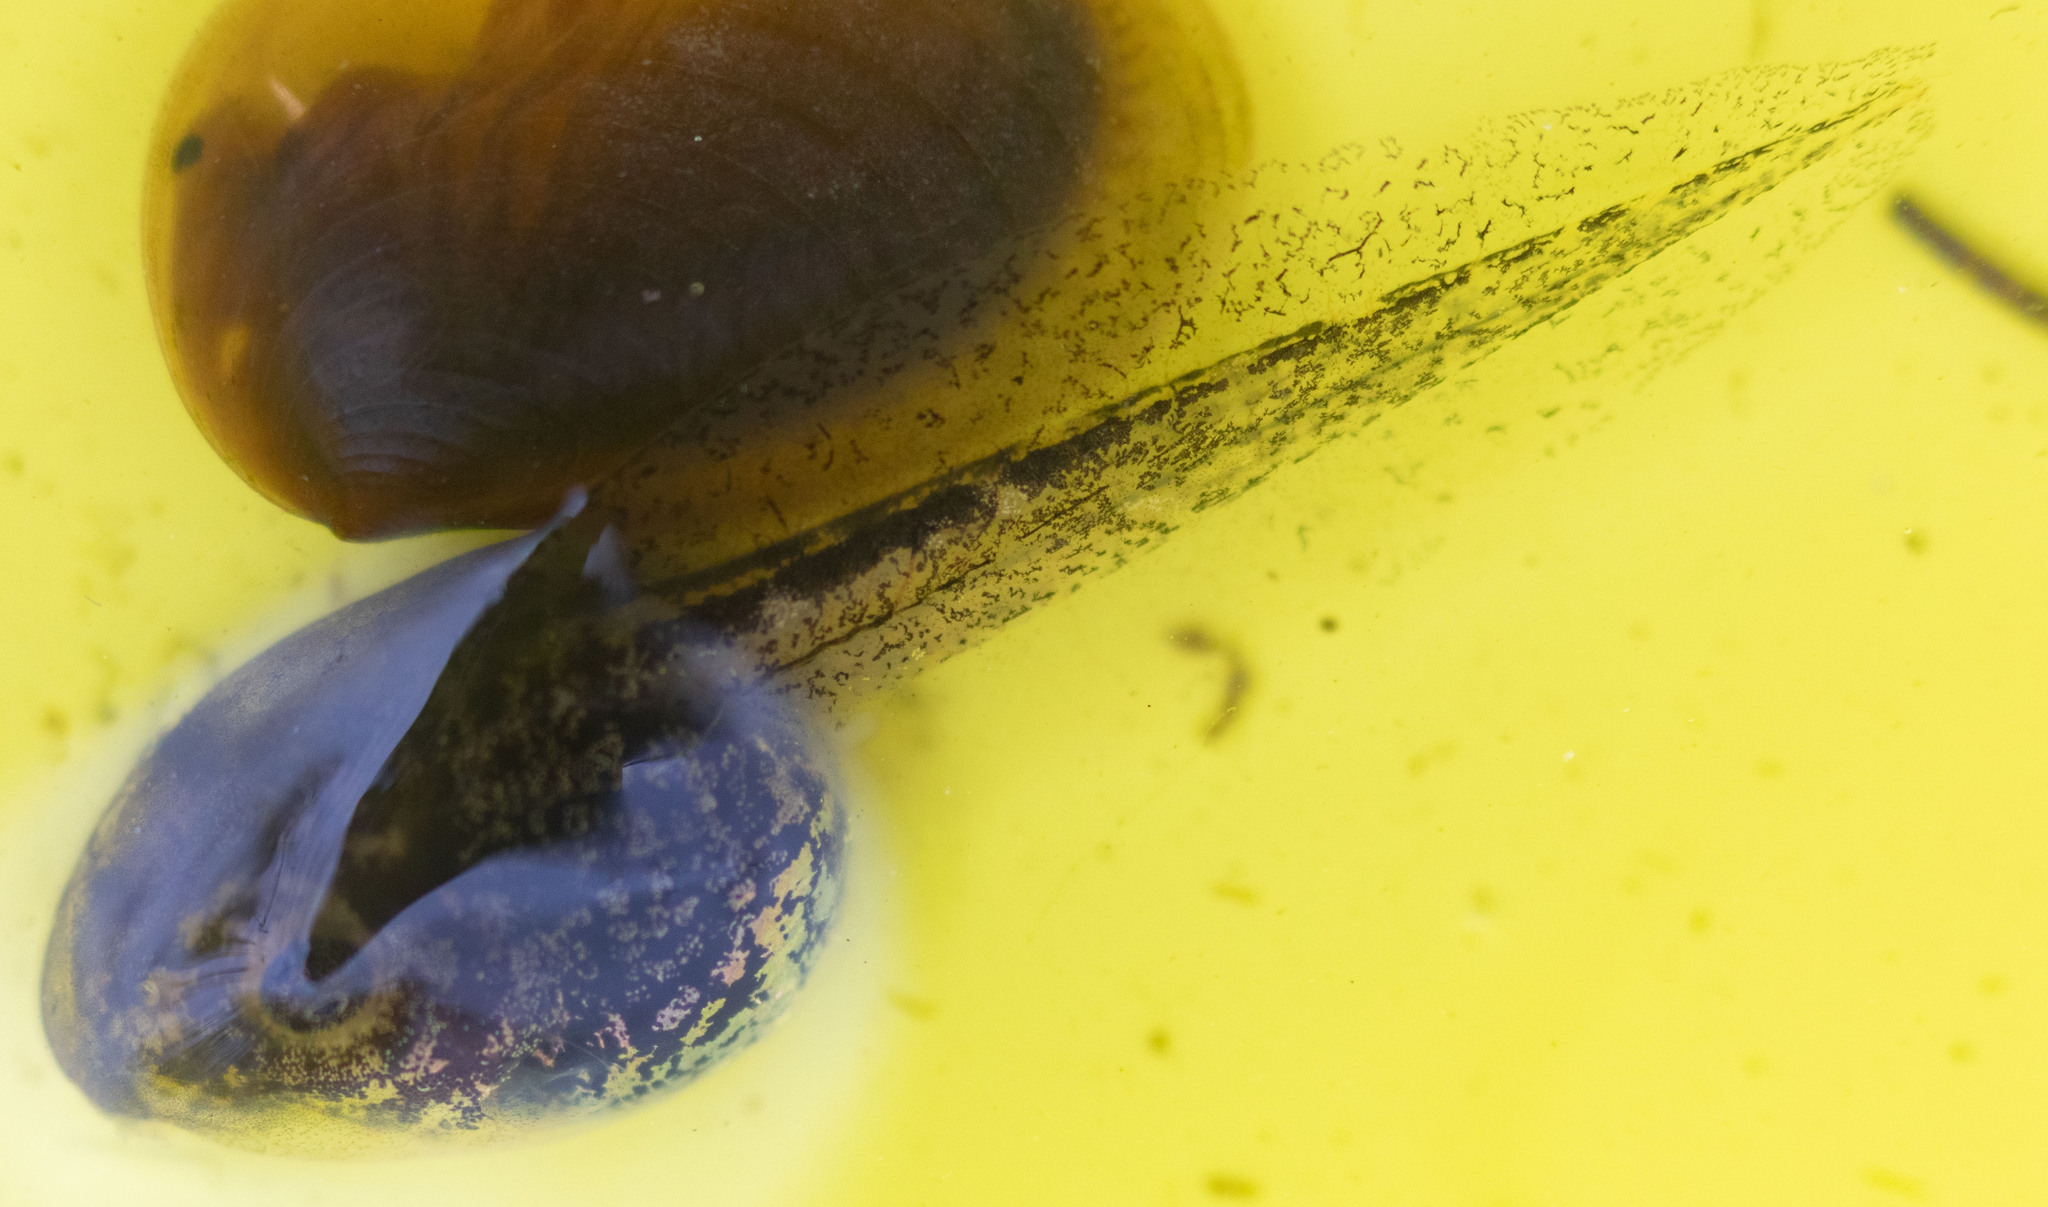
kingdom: Animalia
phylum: Chordata
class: Amphibia
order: Anura
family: Hylidae
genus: Pseudacris
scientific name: Pseudacris regilla
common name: Pacific chorus frog
